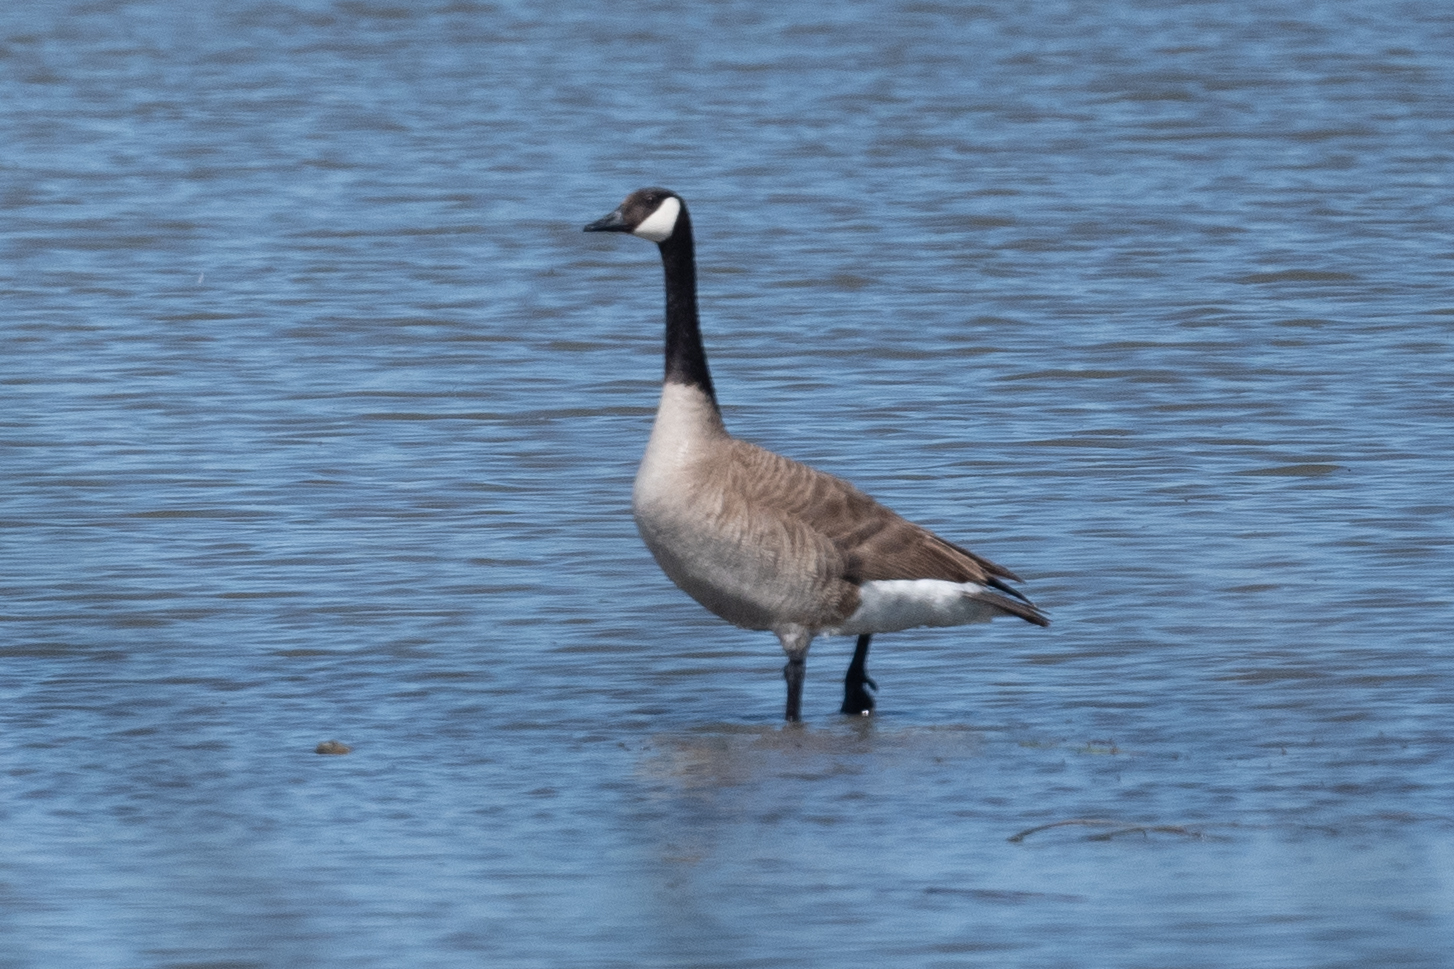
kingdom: Animalia
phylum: Chordata
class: Aves
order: Anseriformes
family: Anatidae
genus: Branta
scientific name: Branta canadensis
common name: Canada goose
